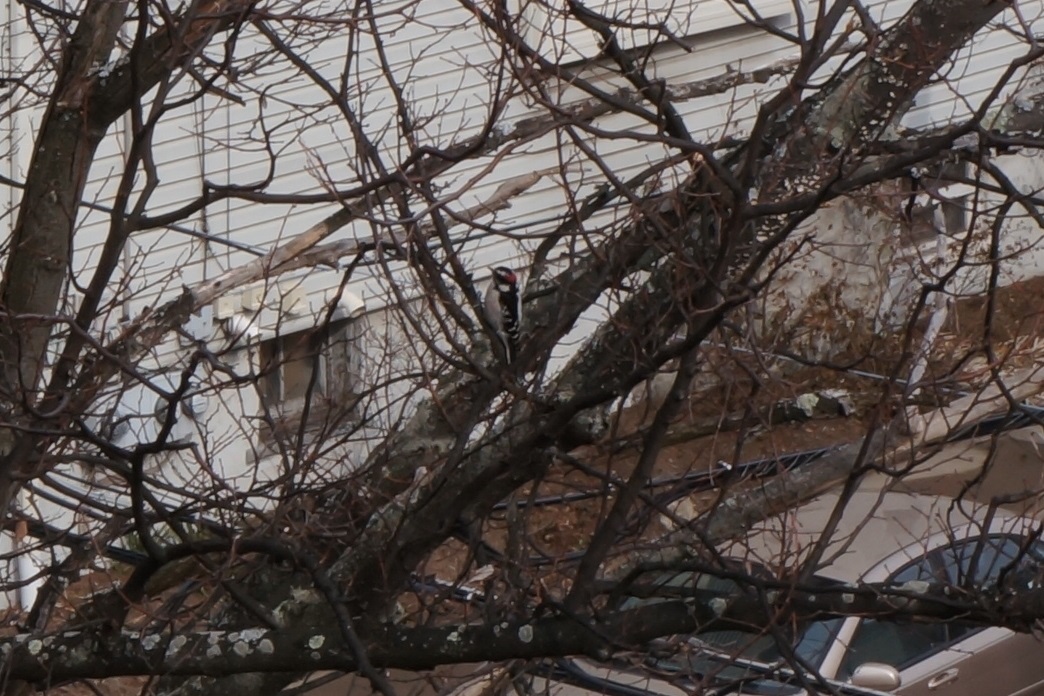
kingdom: Animalia
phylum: Chordata
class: Aves
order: Piciformes
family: Picidae
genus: Dryobates
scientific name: Dryobates pubescens
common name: Downy woodpecker
